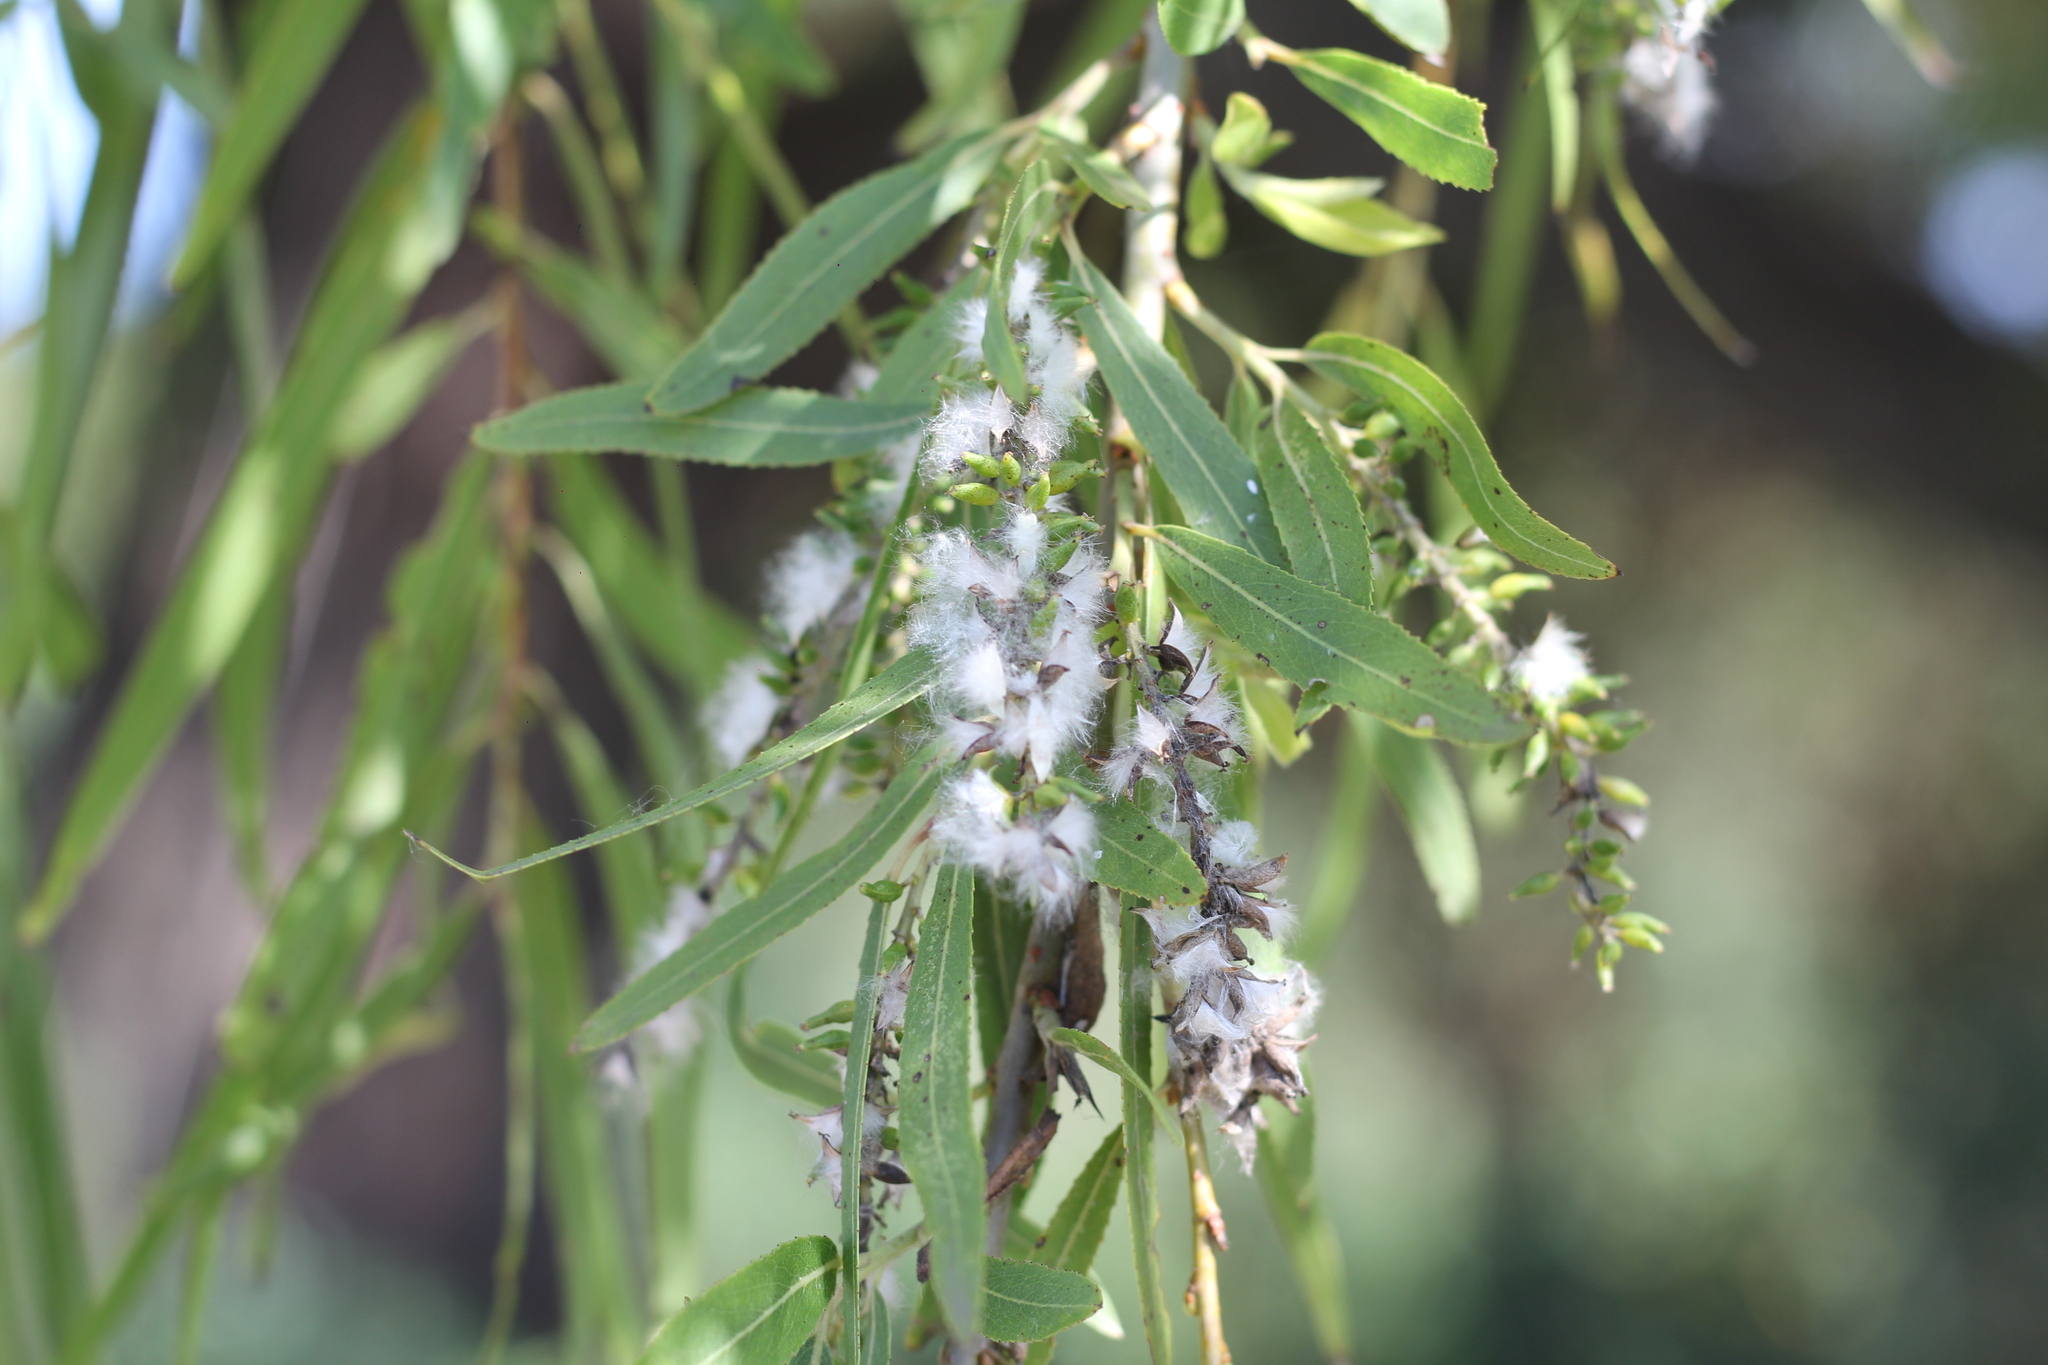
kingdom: Plantae
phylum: Tracheophyta
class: Magnoliopsida
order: Malpighiales
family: Salicaceae
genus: Salix
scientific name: Salix humboldtiana
